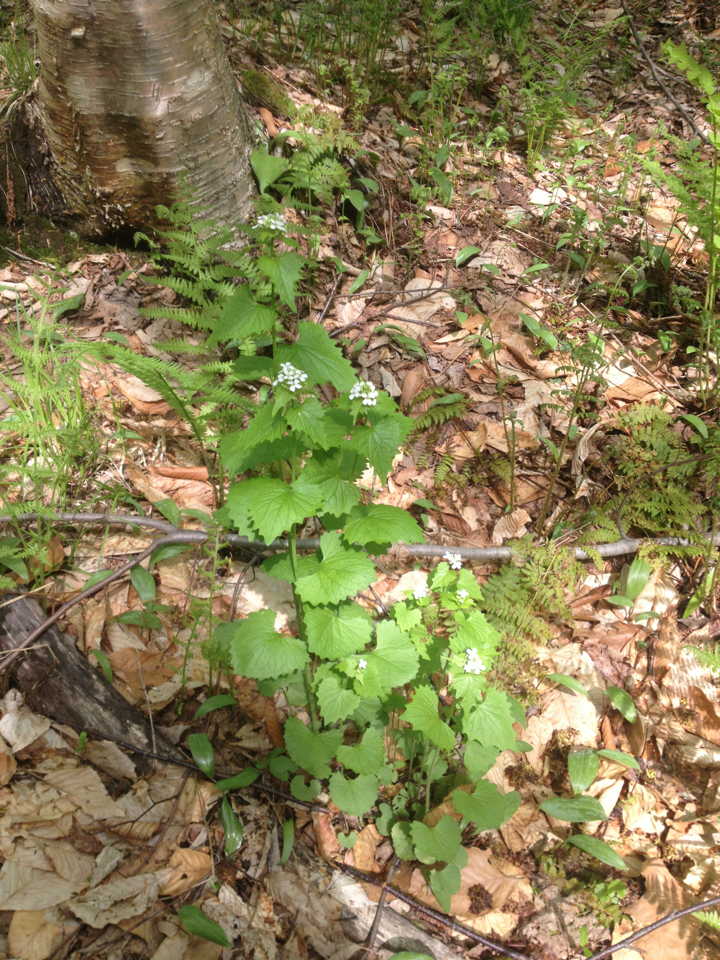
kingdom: Plantae
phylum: Tracheophyta
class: Magnoliopsida
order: Brassicales
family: Brassicaceae
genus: Alliaria
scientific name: Alliaria petiolata
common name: Garlic mustard
